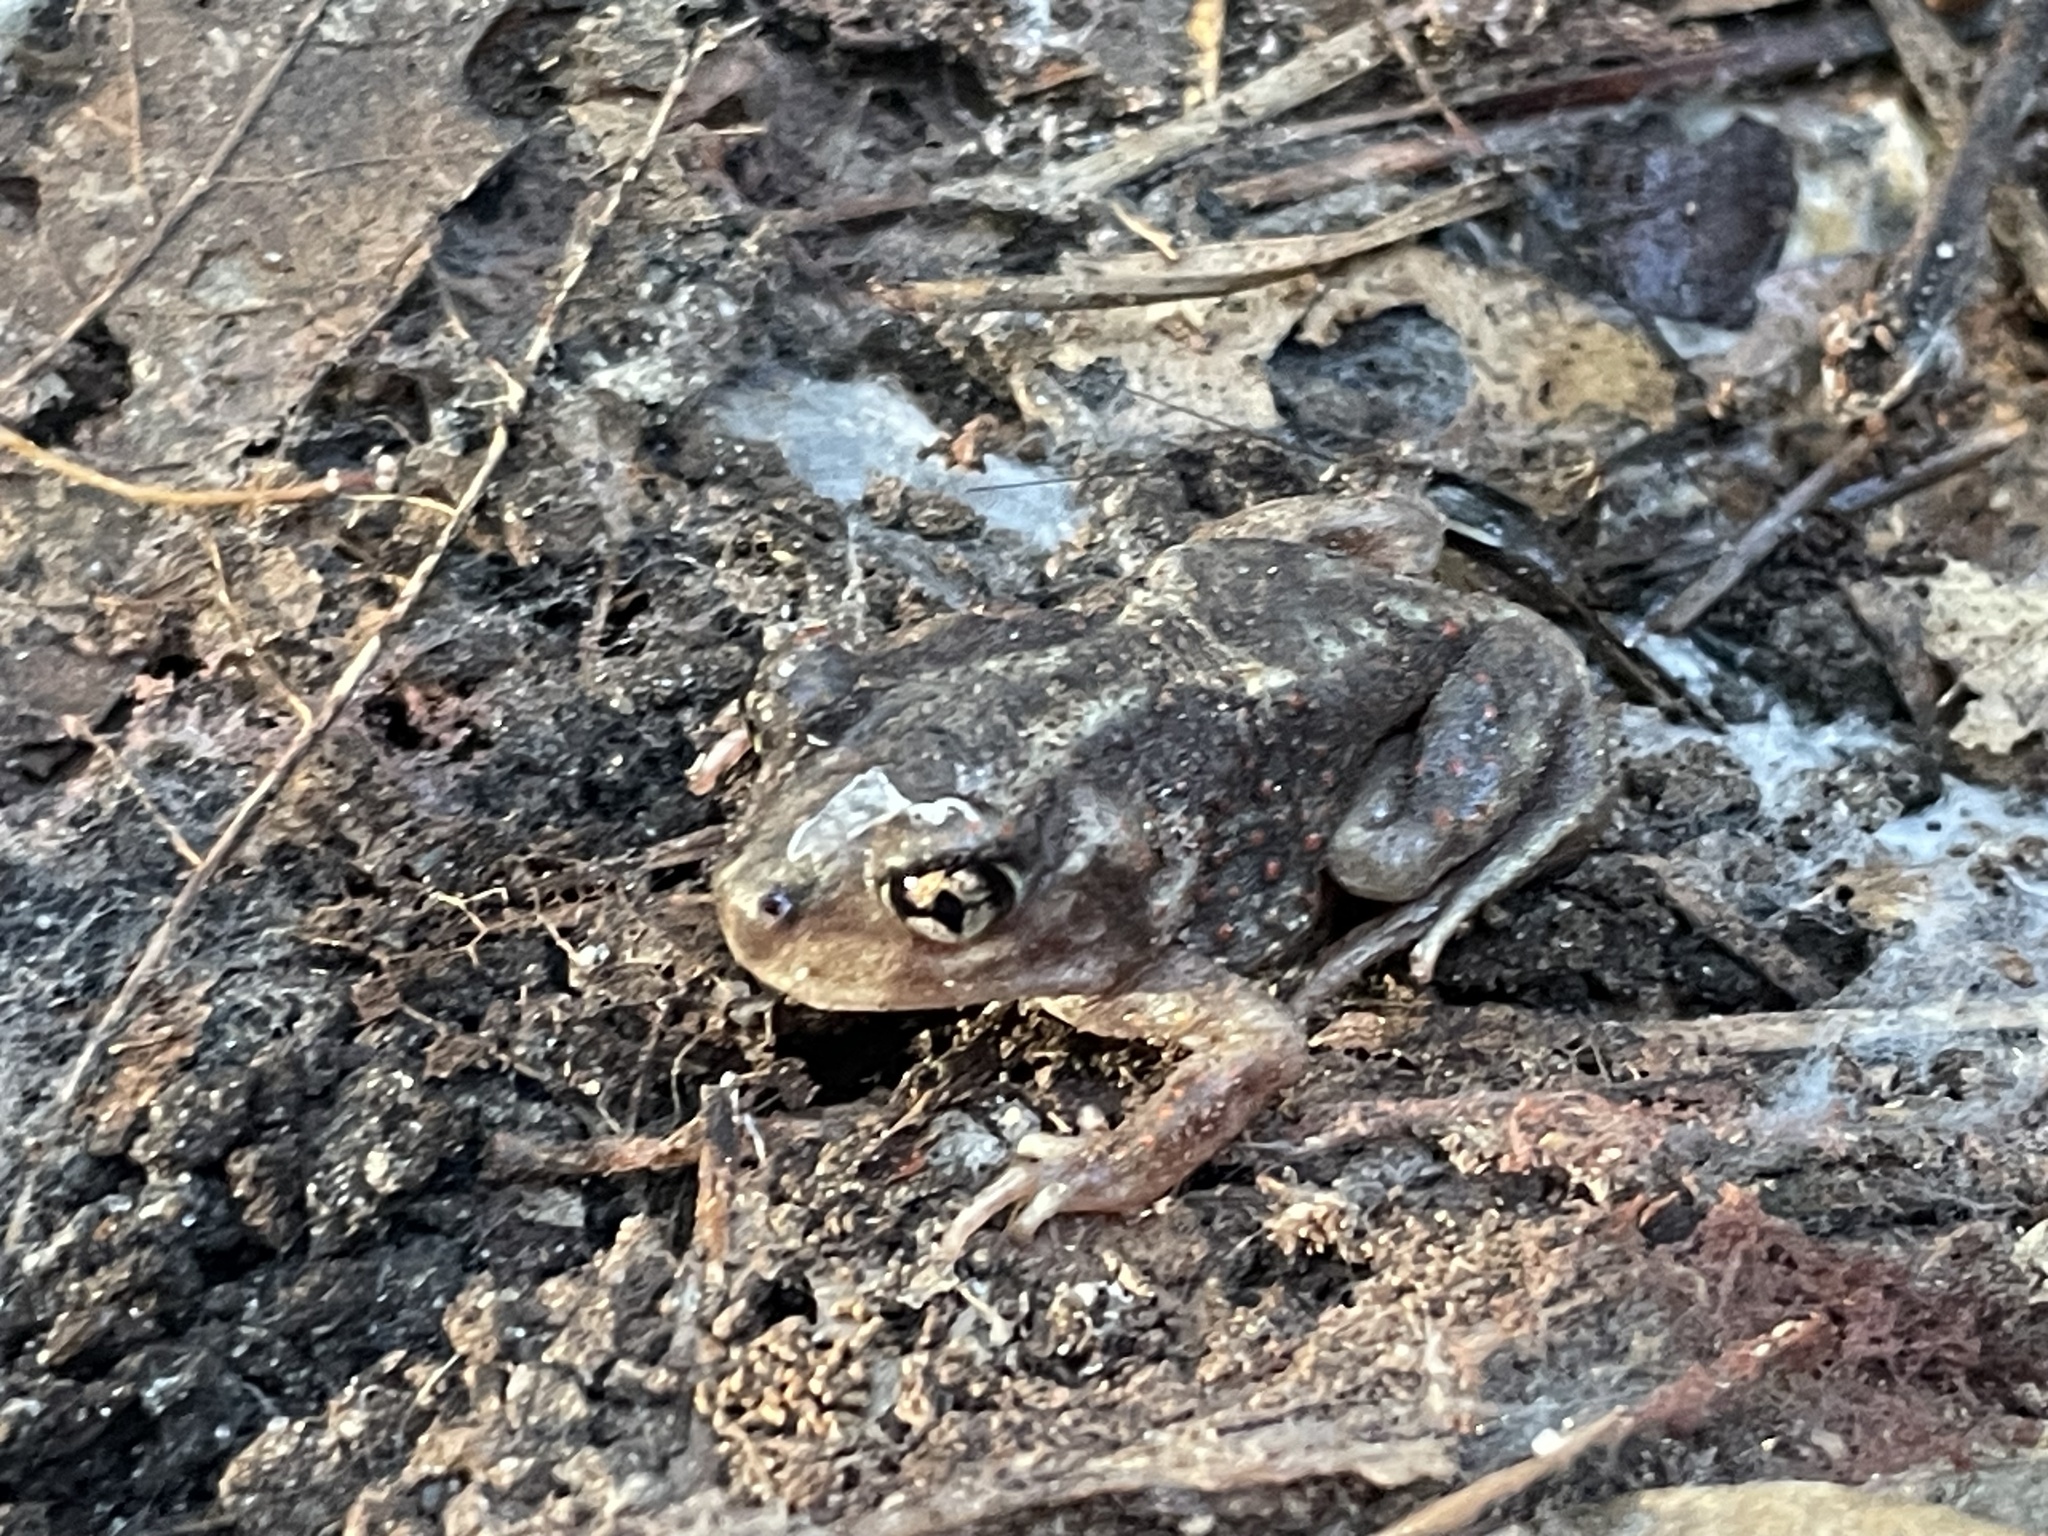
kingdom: Animalia
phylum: Chordata
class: Amphibia
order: Anura
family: Scaphiopodidae
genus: Scaphiopus
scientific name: Scaphiopus holbrookii
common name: Eastern spadefoot toad
